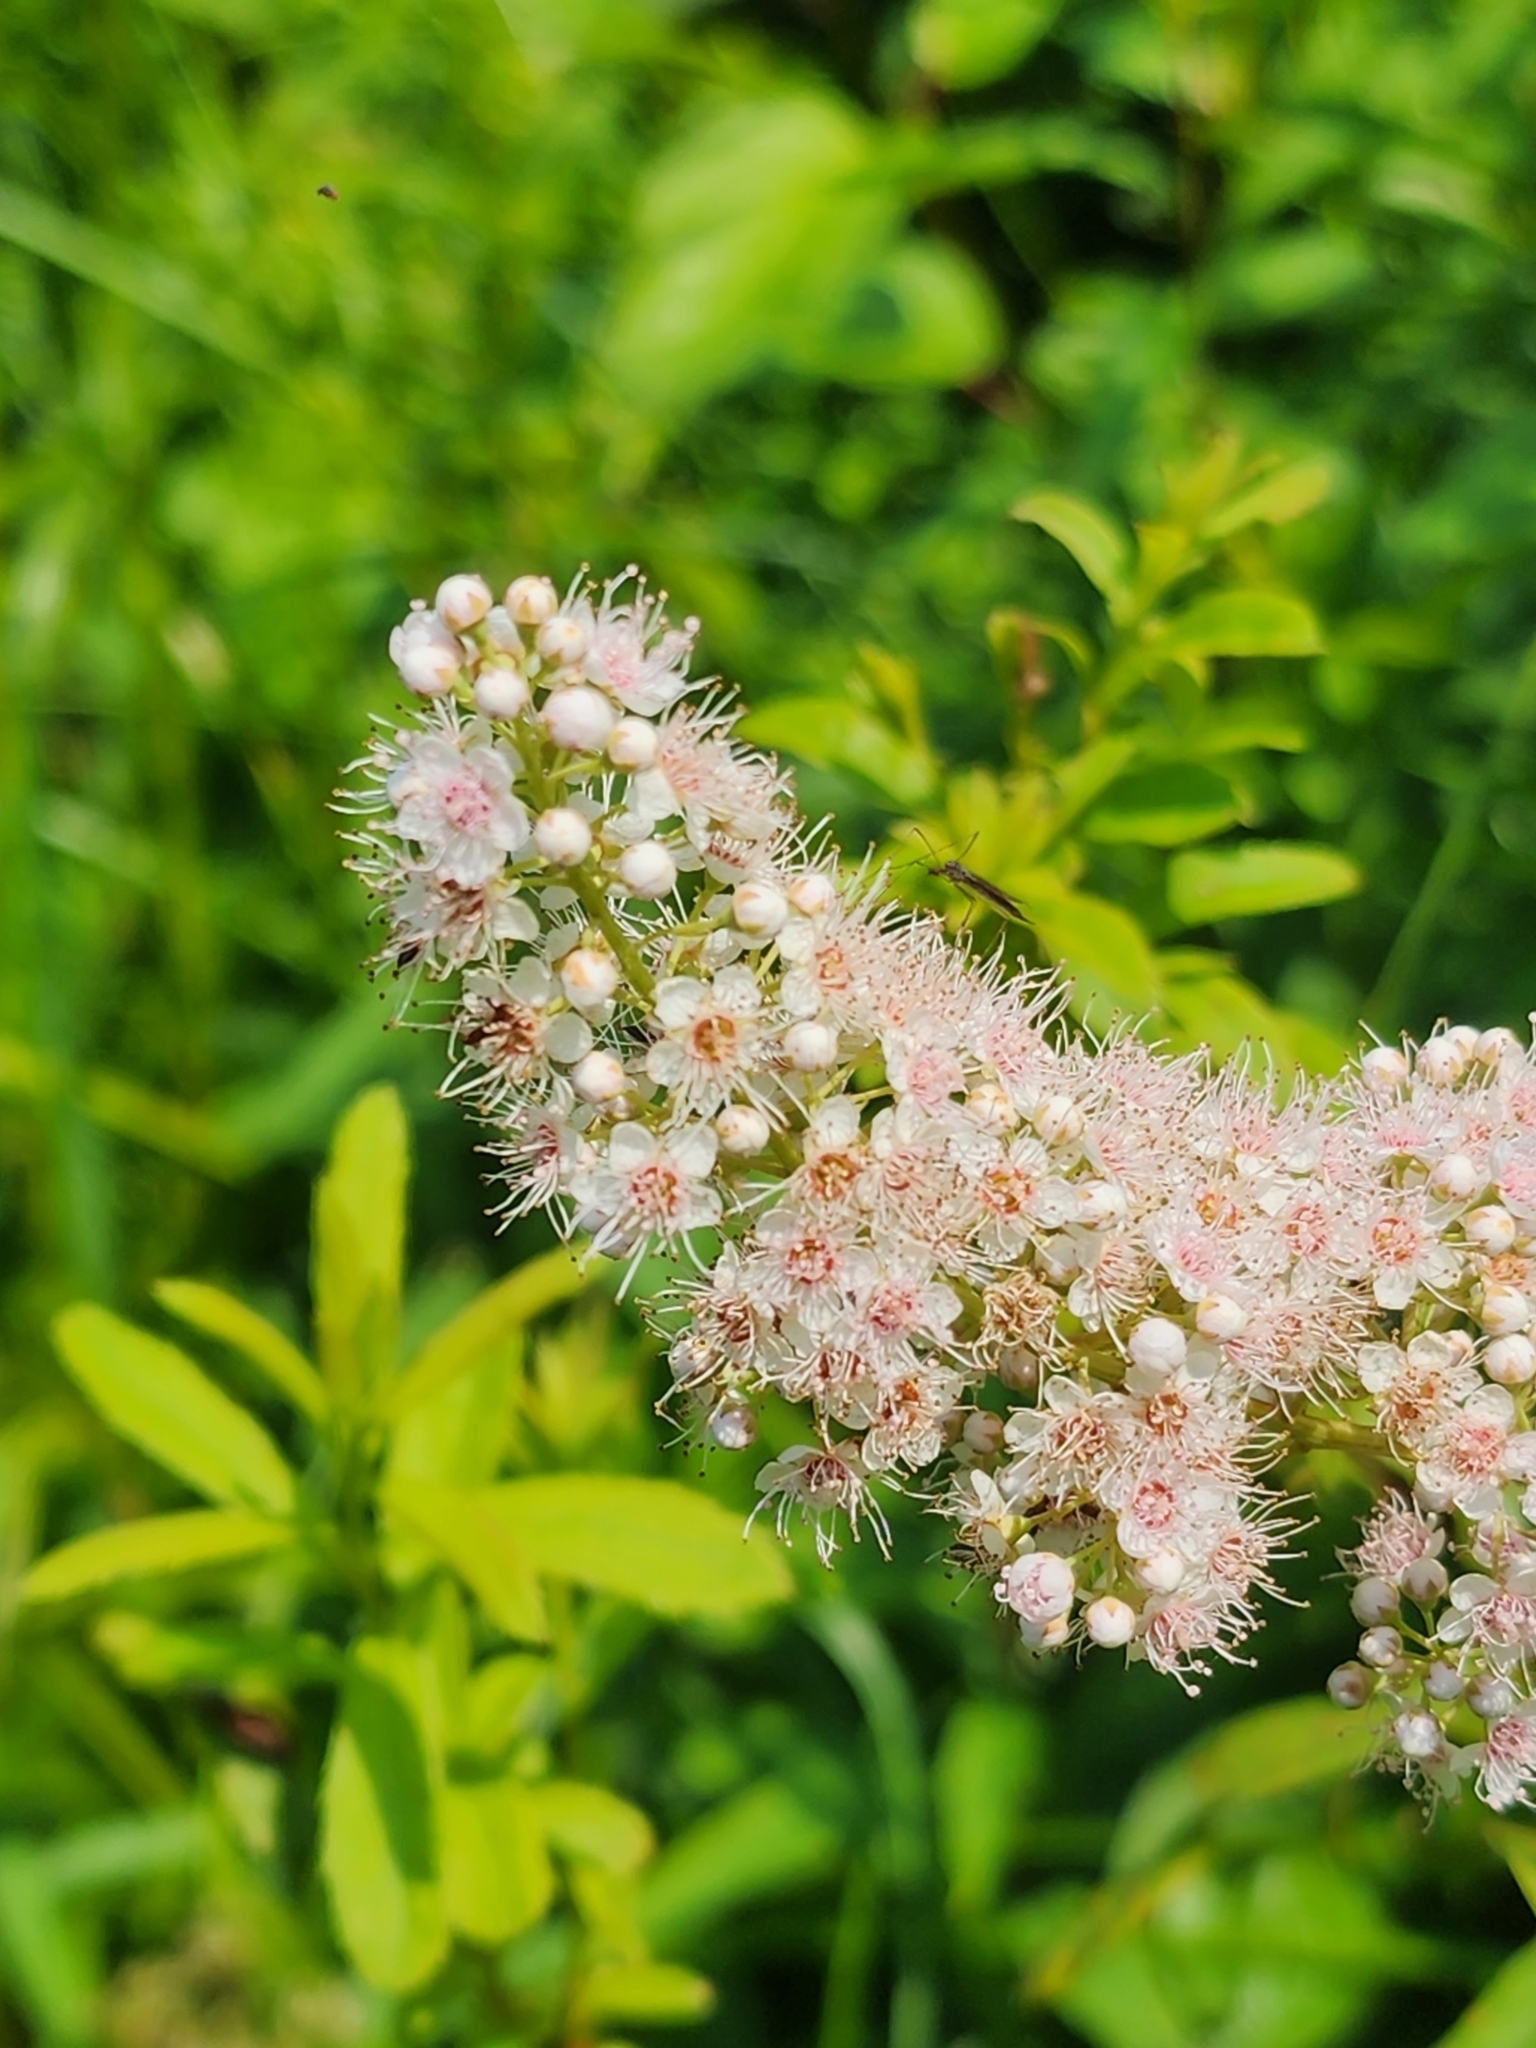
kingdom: Plantae
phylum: Tracheophyta
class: Magnoliopsida
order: Rosales
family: Rosaceae
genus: Spiraea
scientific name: Spiraea alba
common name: Pale bridewort
